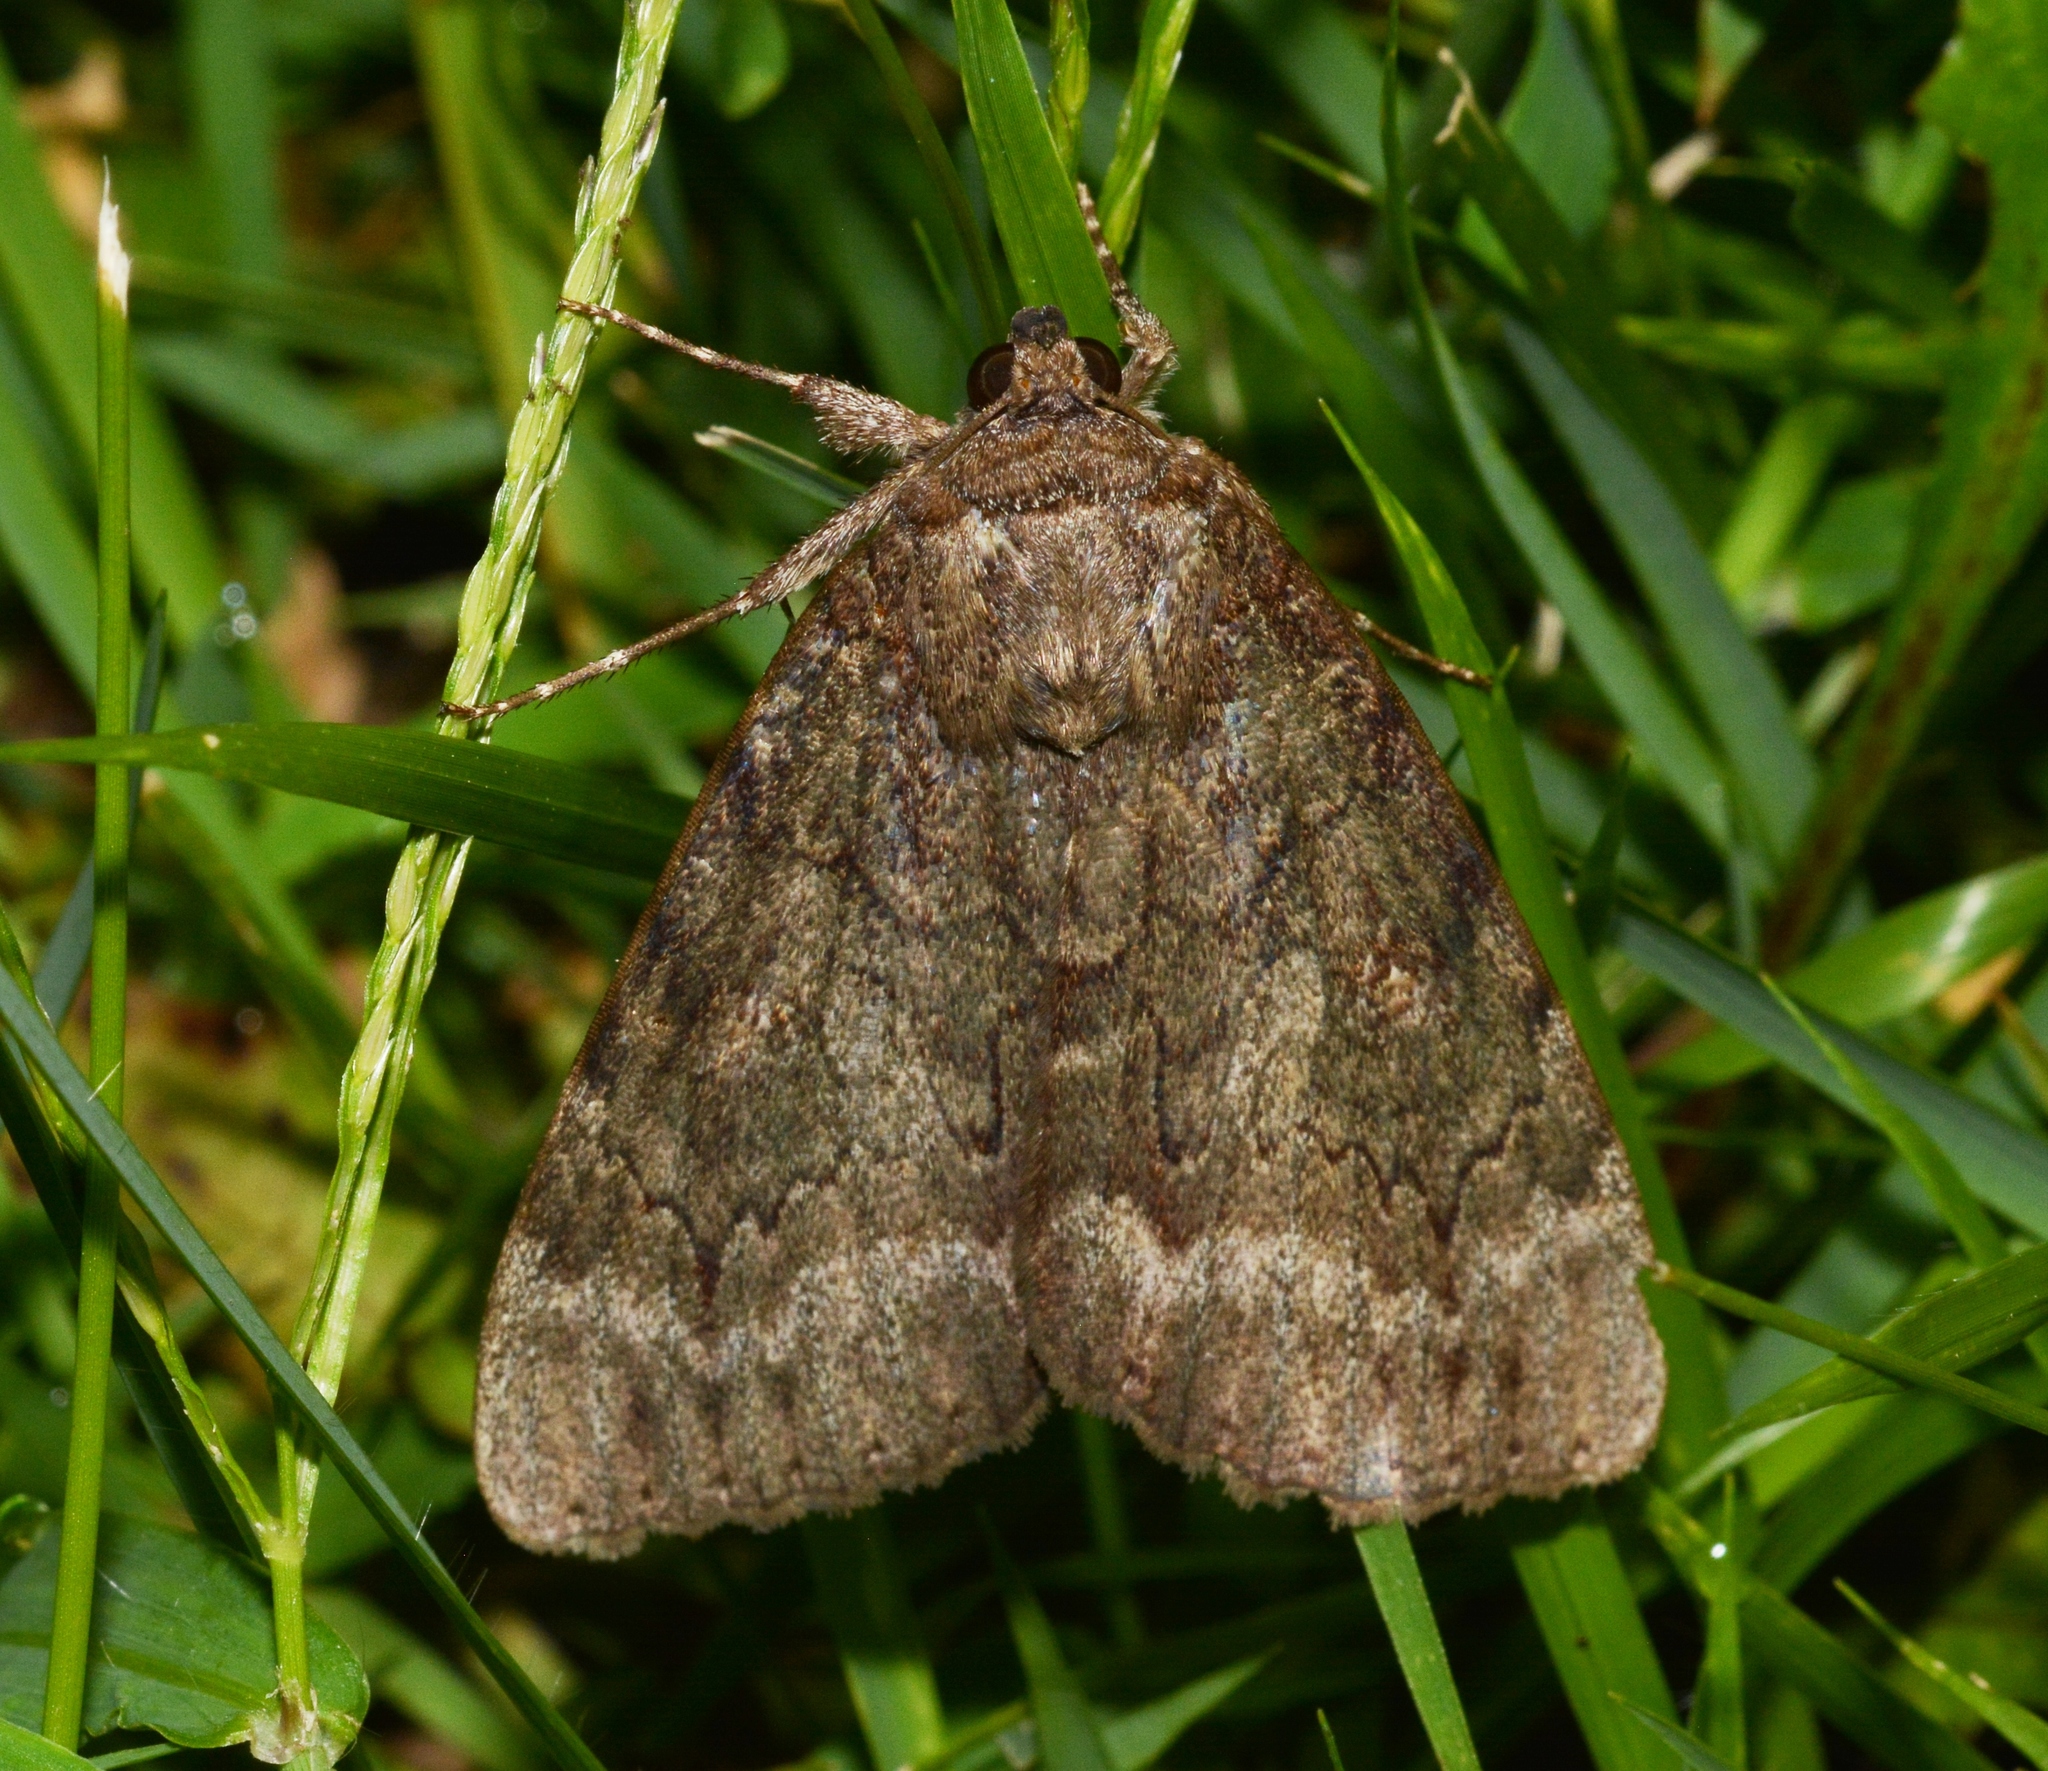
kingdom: Animalia
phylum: Arthropoda
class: Insecta
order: Lepidoptera
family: Erebidae
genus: Catocala
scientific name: Catocala residua
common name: Residua underwing
